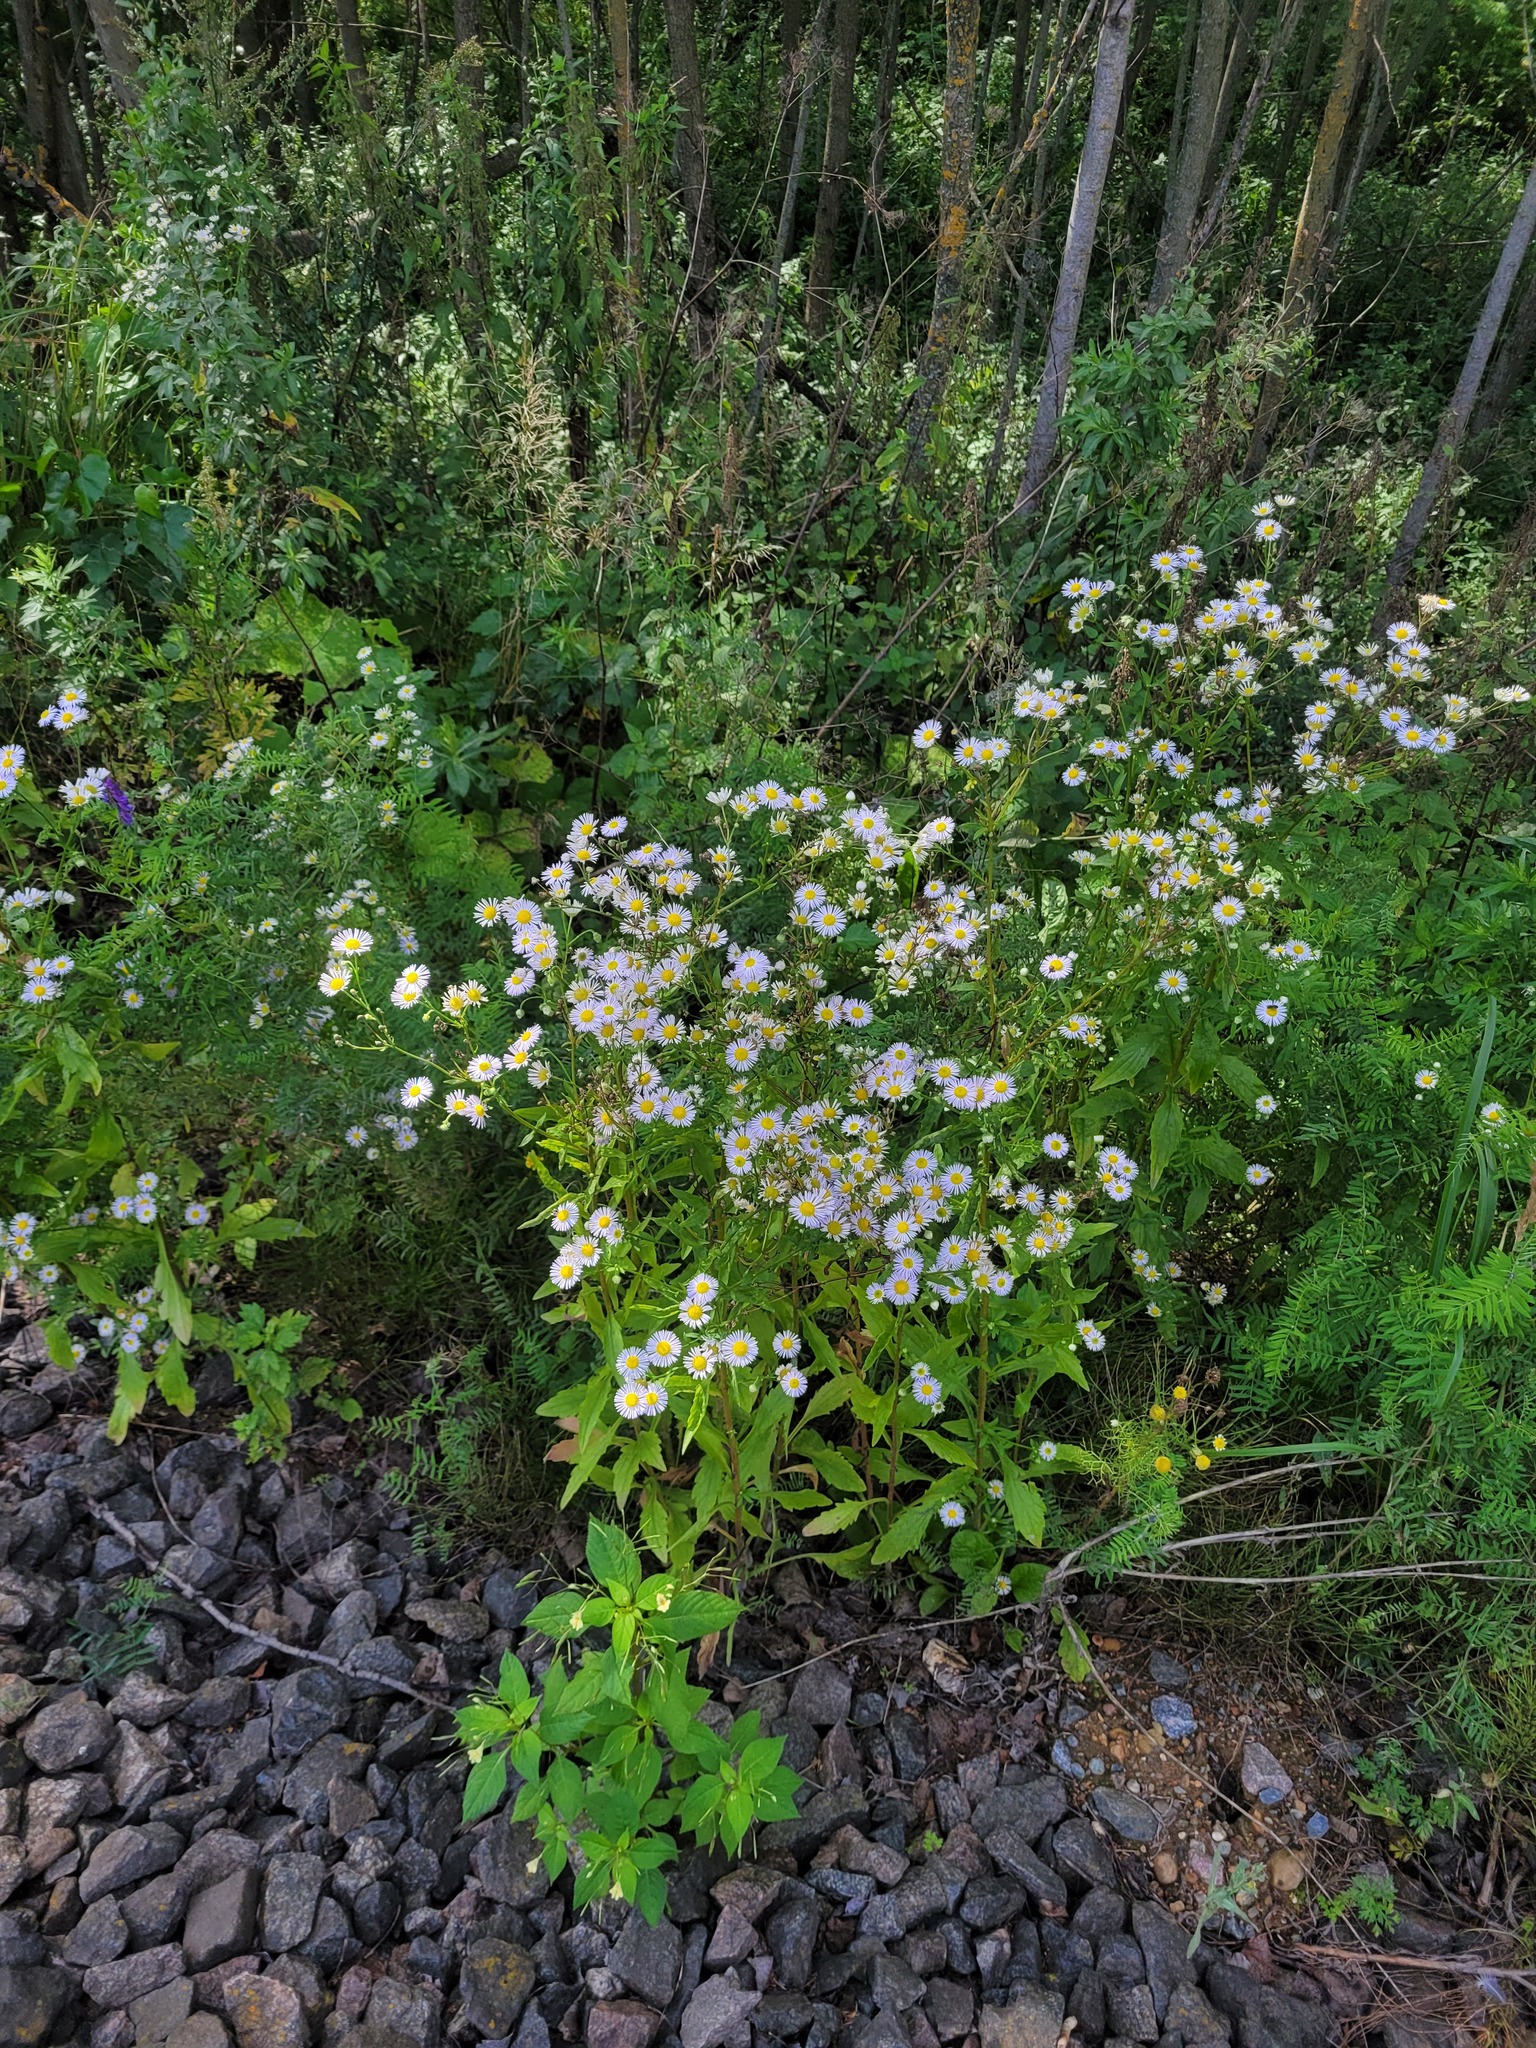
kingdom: Plantae
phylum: Tracheophyta
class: Magnoliopsida
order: Asterales
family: Asteraceae
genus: Erigeron
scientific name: Erigeron annuus
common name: Tall fleabane
